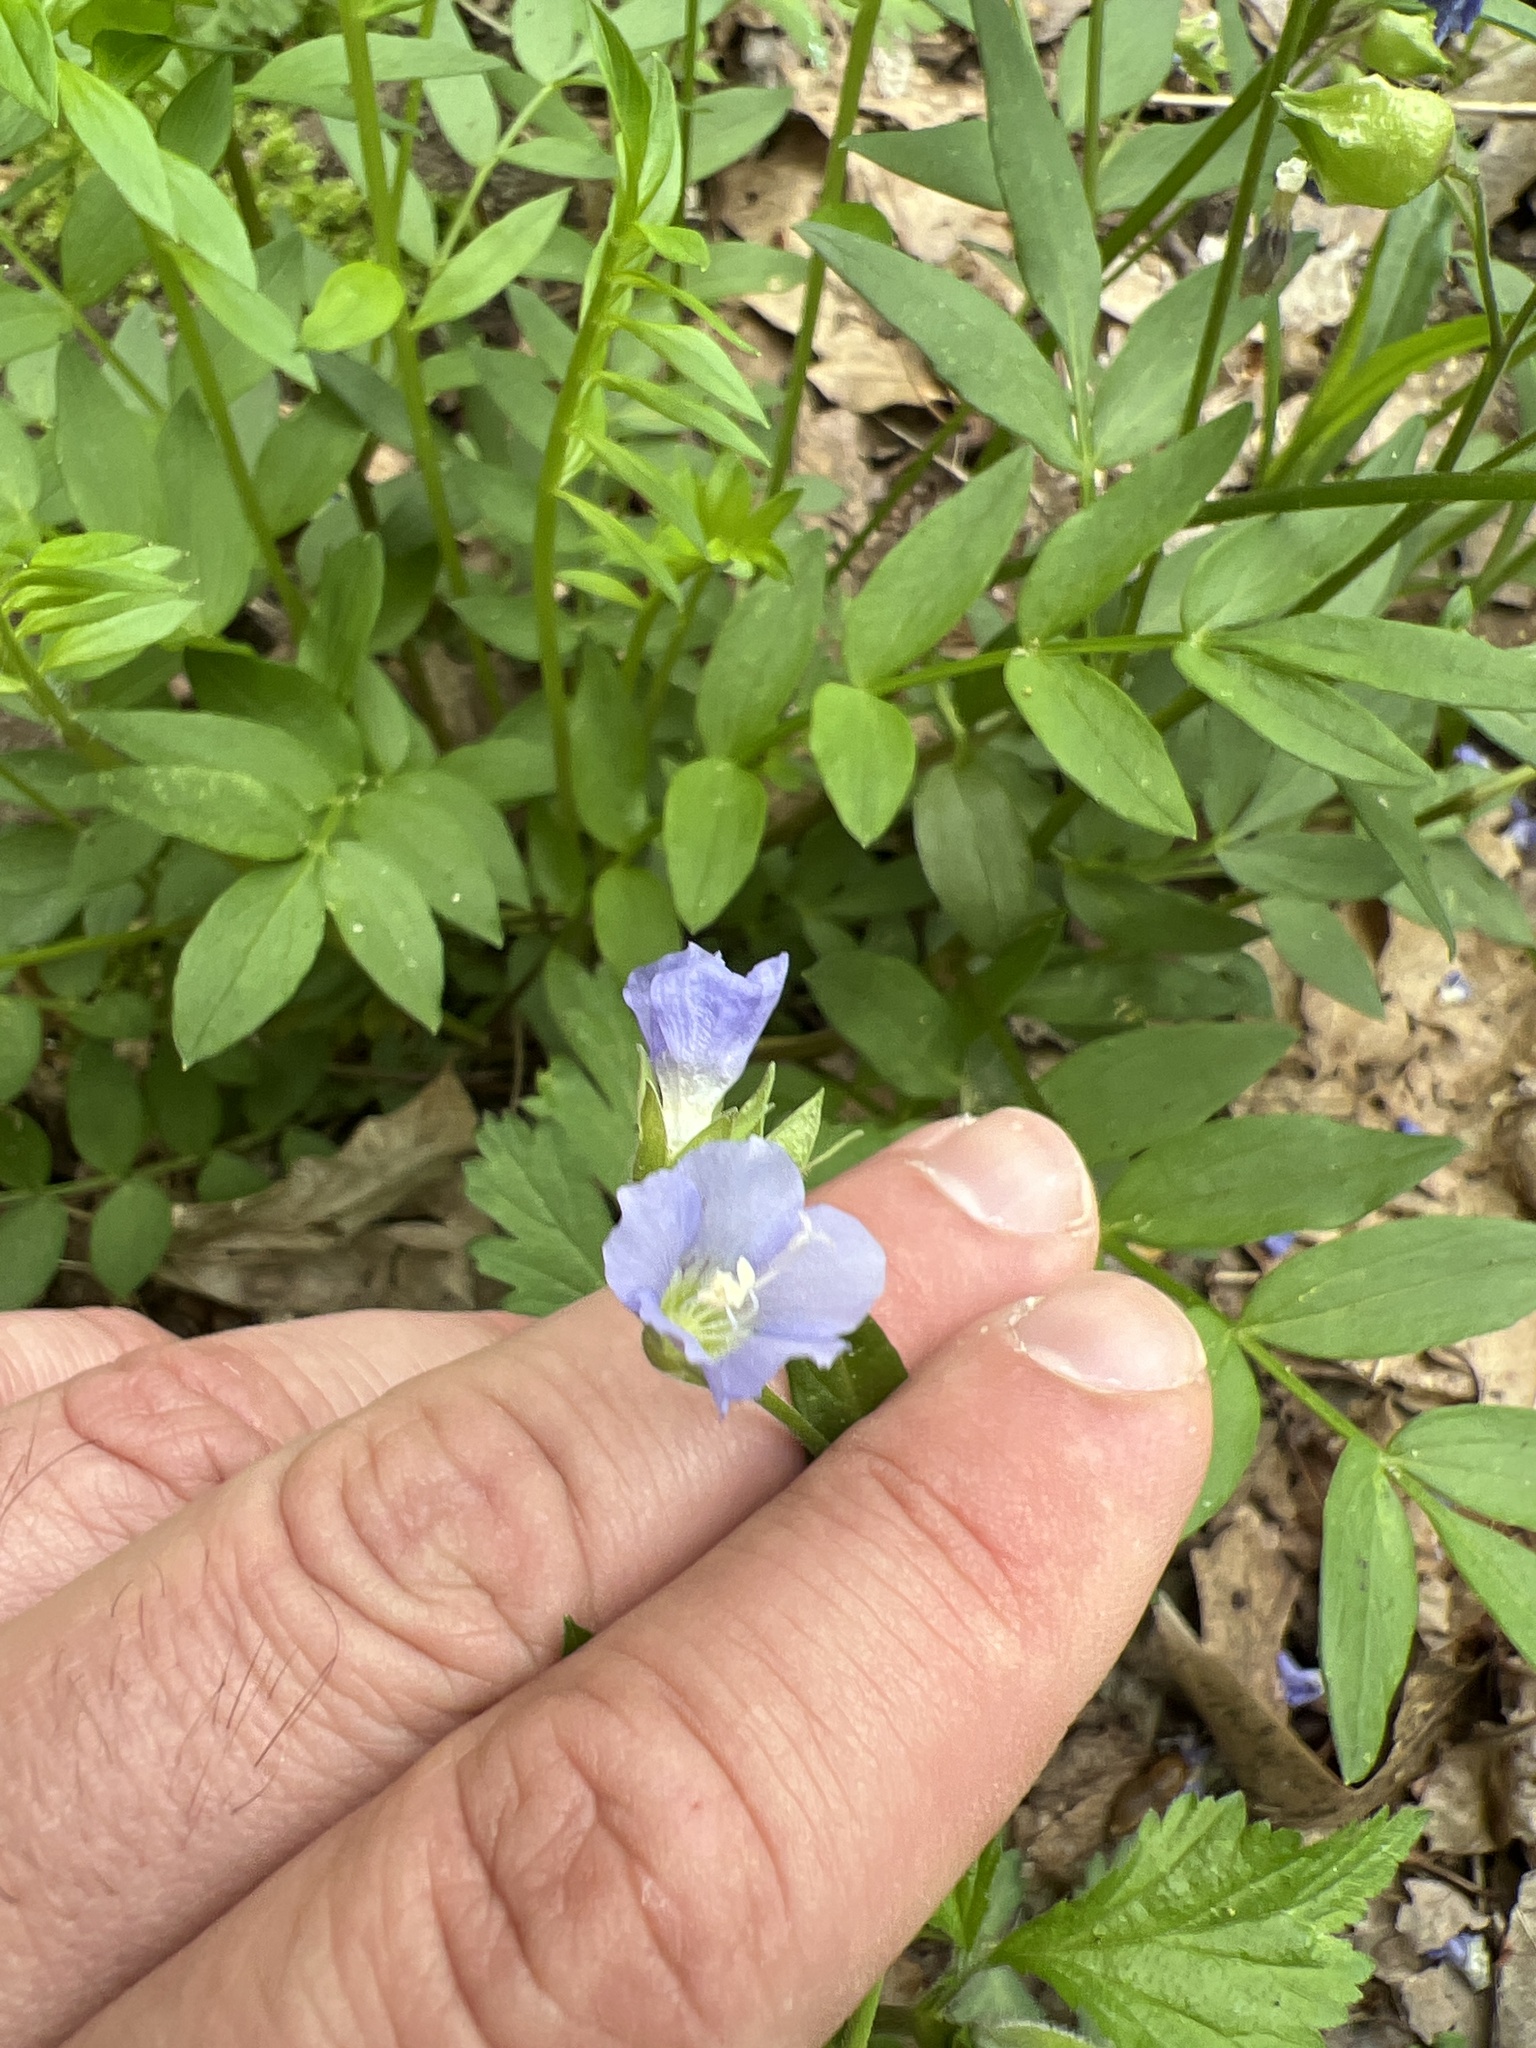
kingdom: Plantae
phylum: Tracheophyta
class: Magnoliopsida
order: Ericales
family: Polemoniaceae
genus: Polemonium
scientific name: Polemonium reptans
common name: Creeping jacob's-ladder
